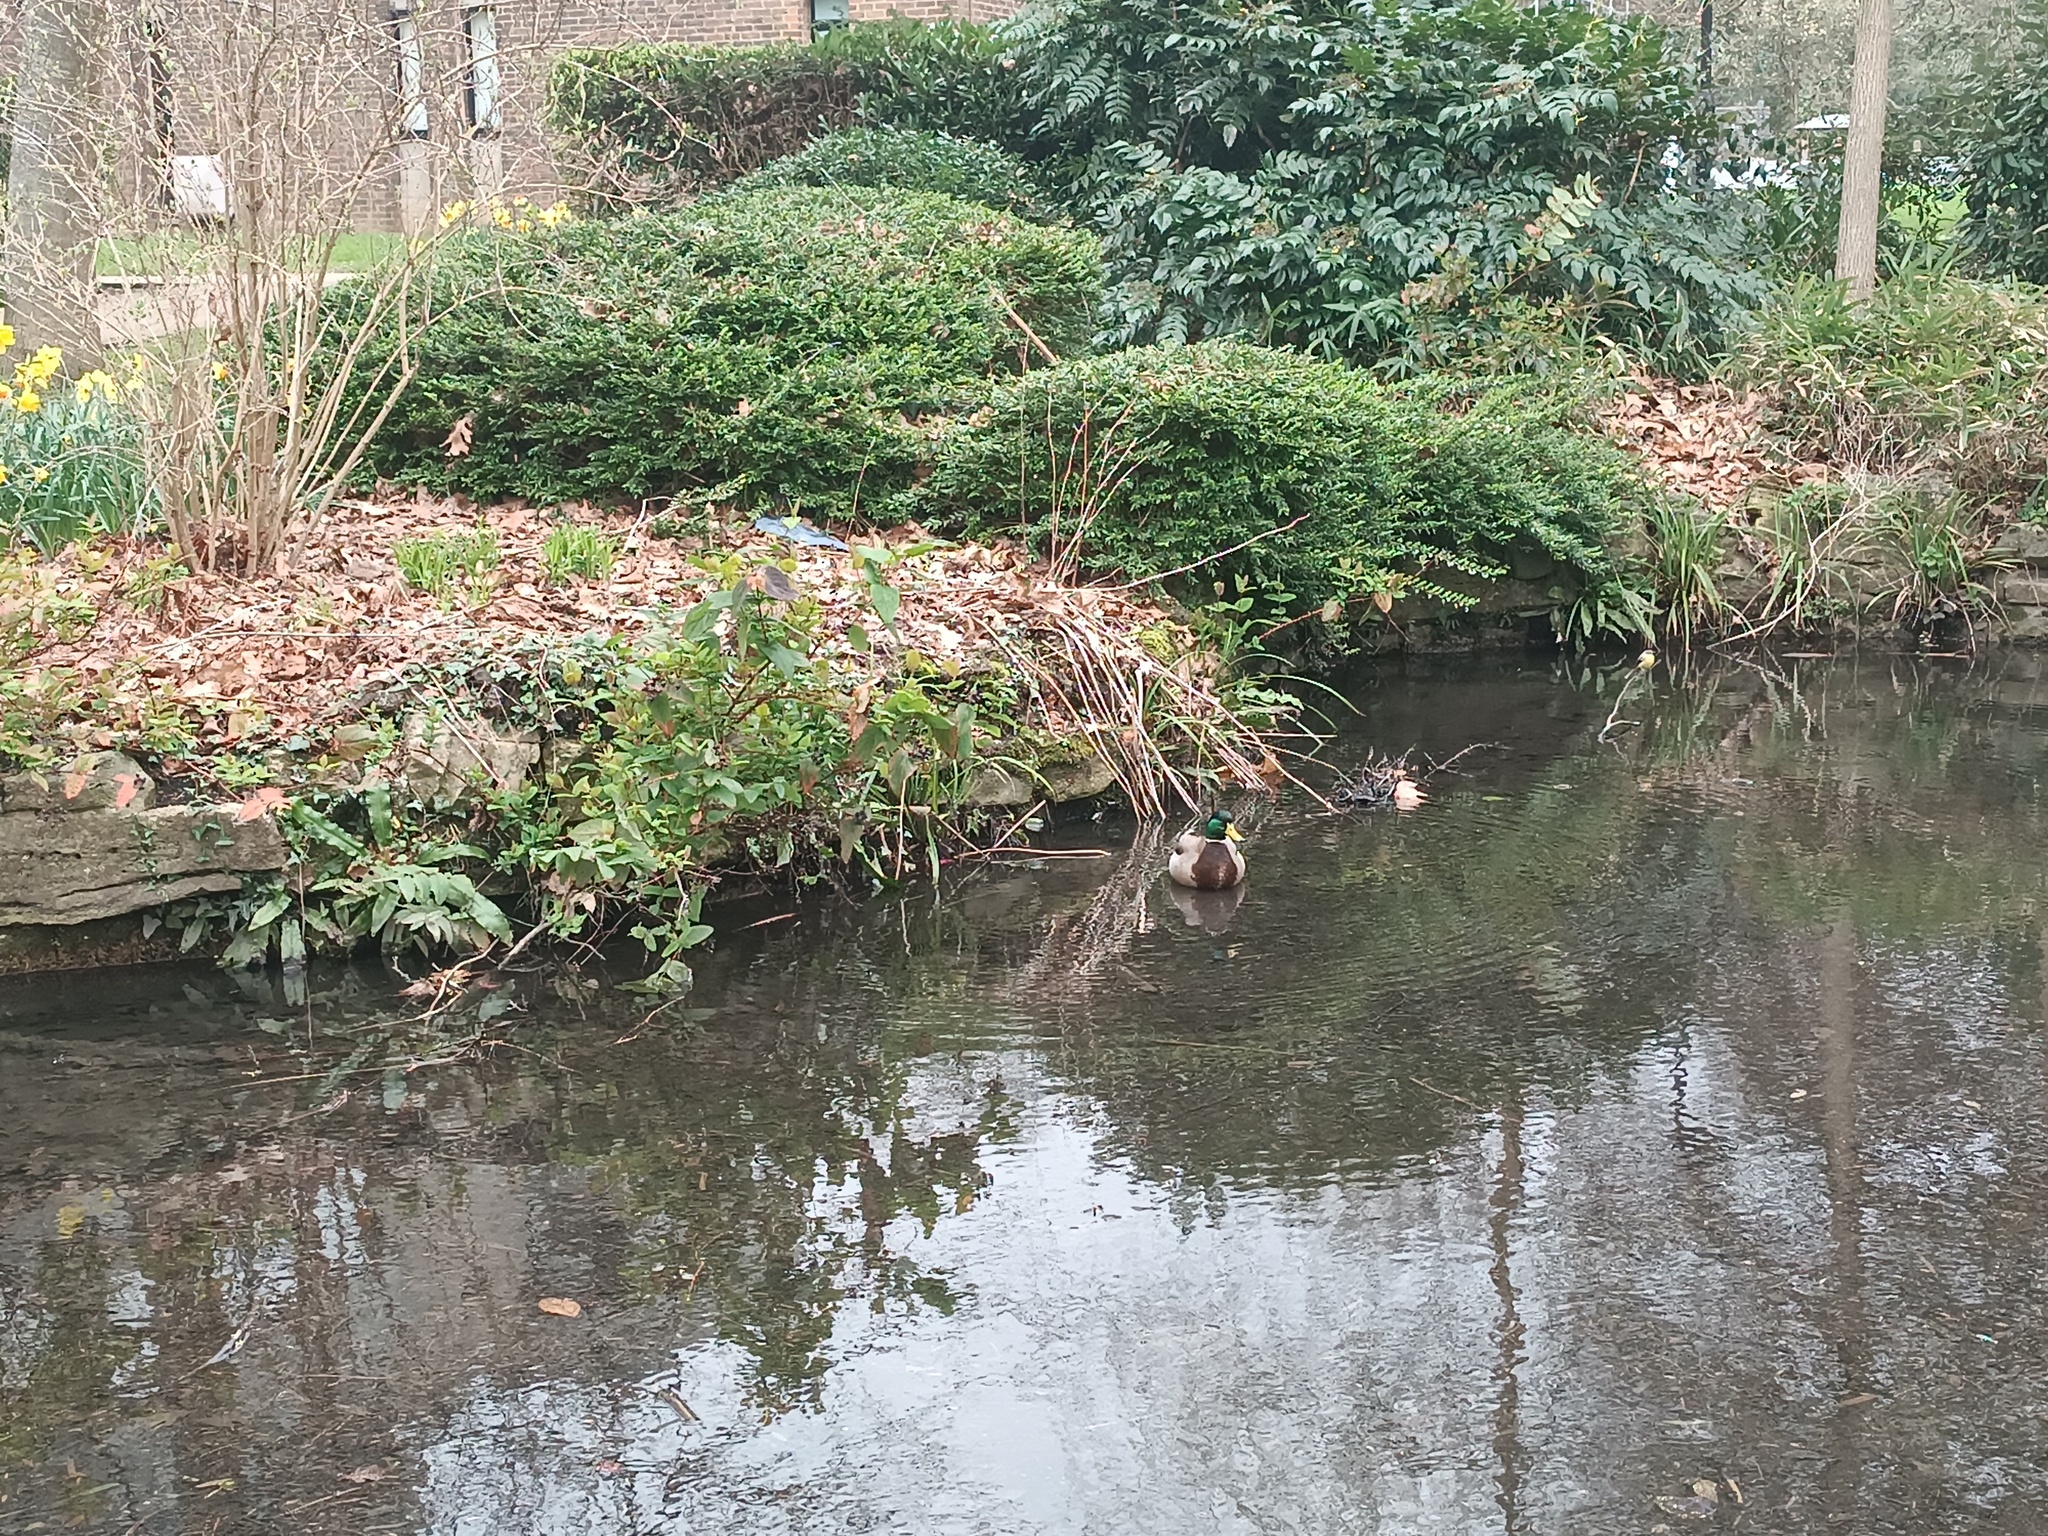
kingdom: Animalia
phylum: Chordata
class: Aves
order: Anseriformes
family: Anatidae
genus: Anas
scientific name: Anas platyrhynchos
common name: Mallard
